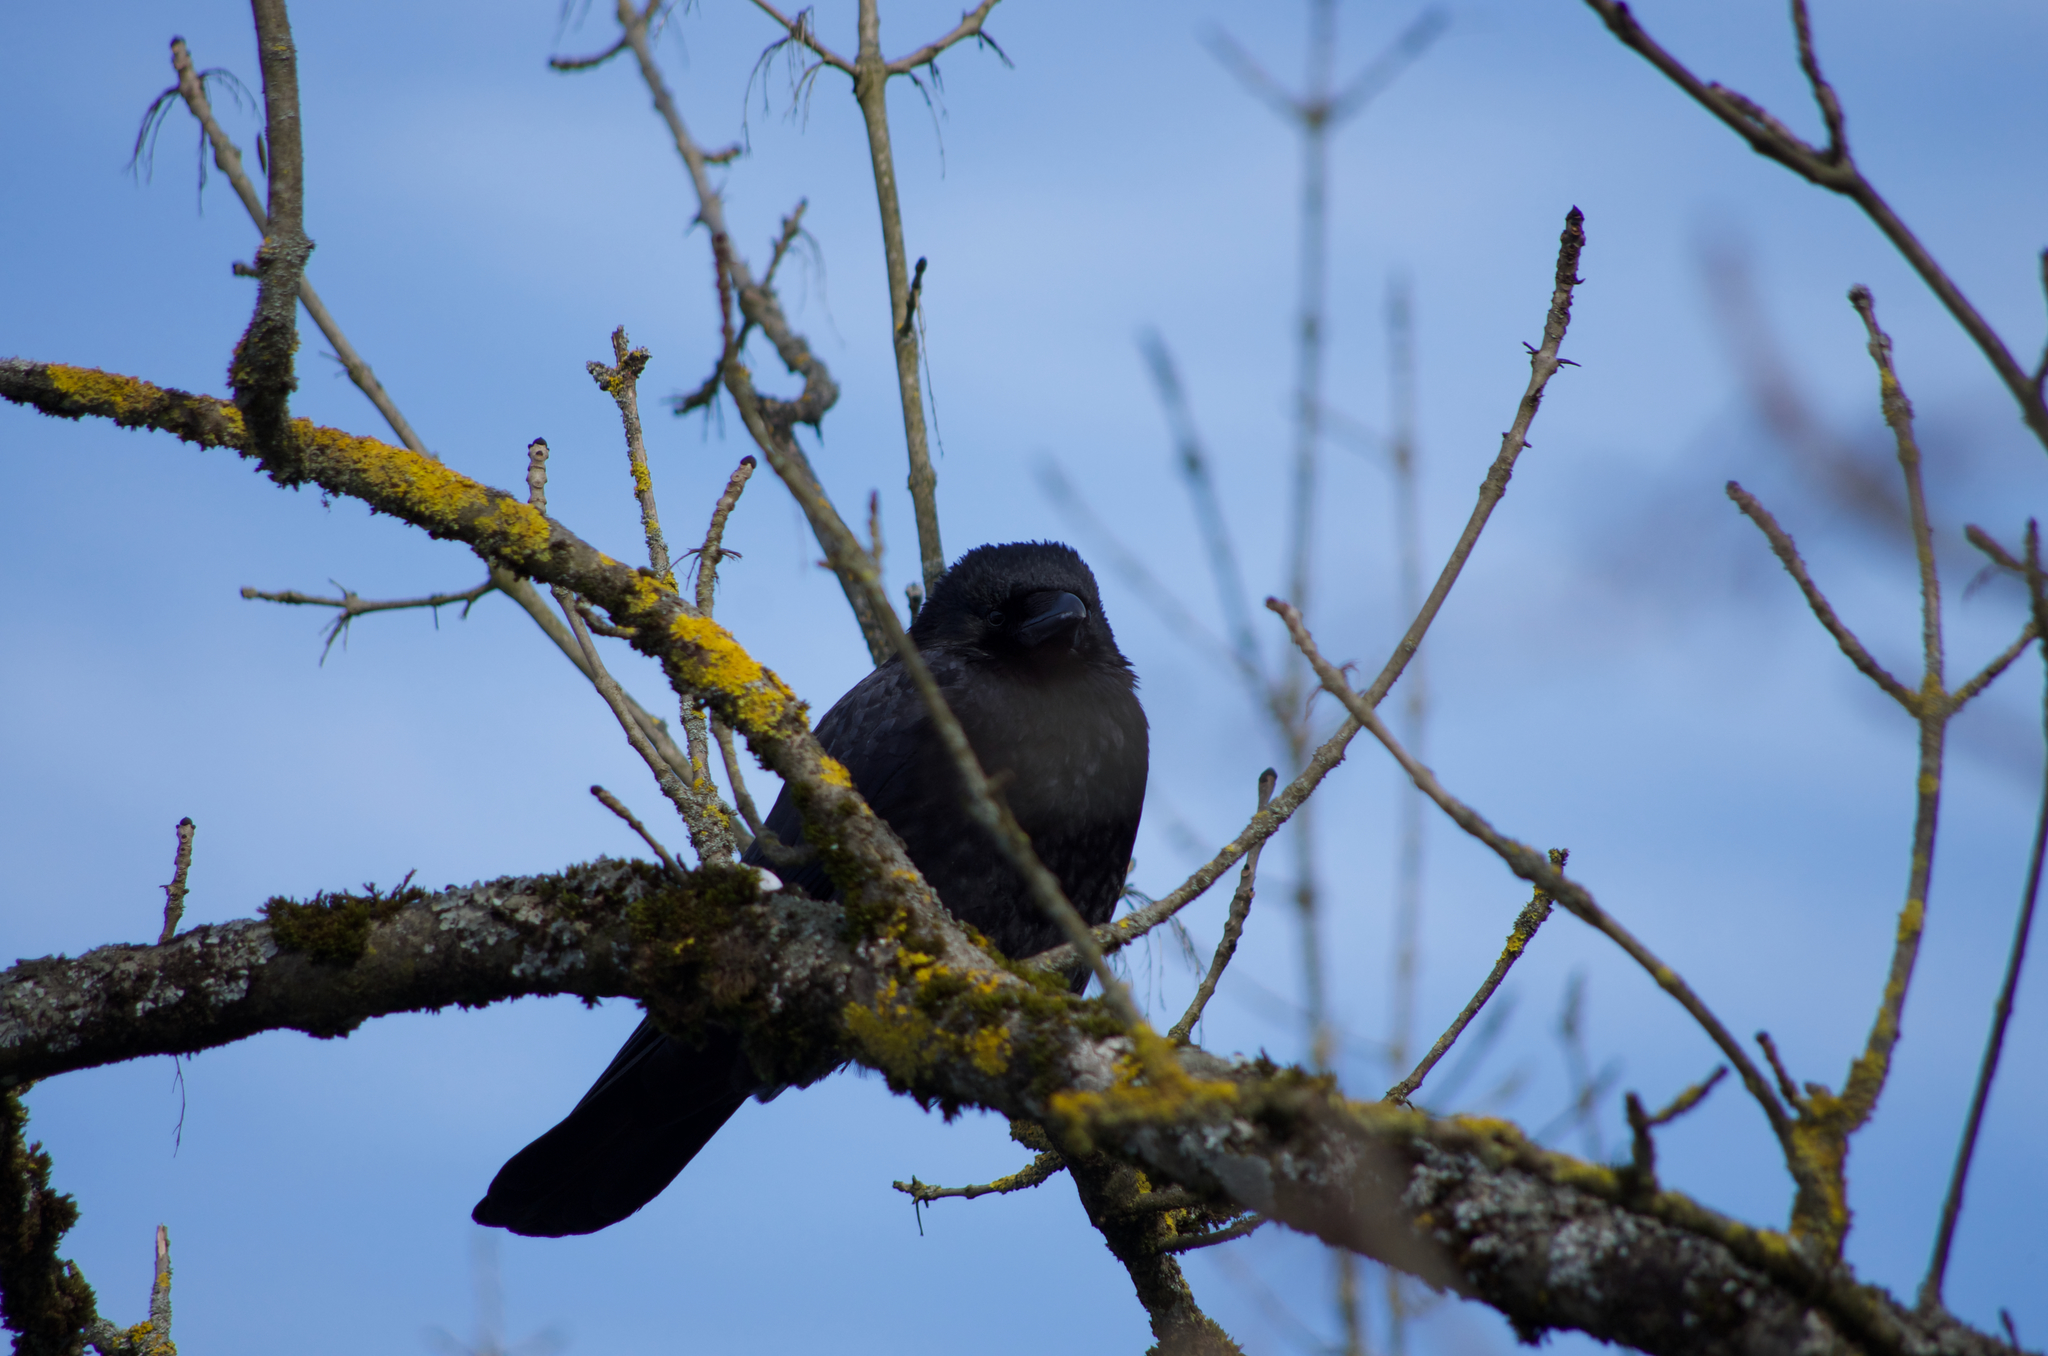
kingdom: Animalia
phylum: Chordata
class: Aves
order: Passeriformes
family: Corvidae
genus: Corvus
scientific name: Corvus corone
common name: Carrion crow
